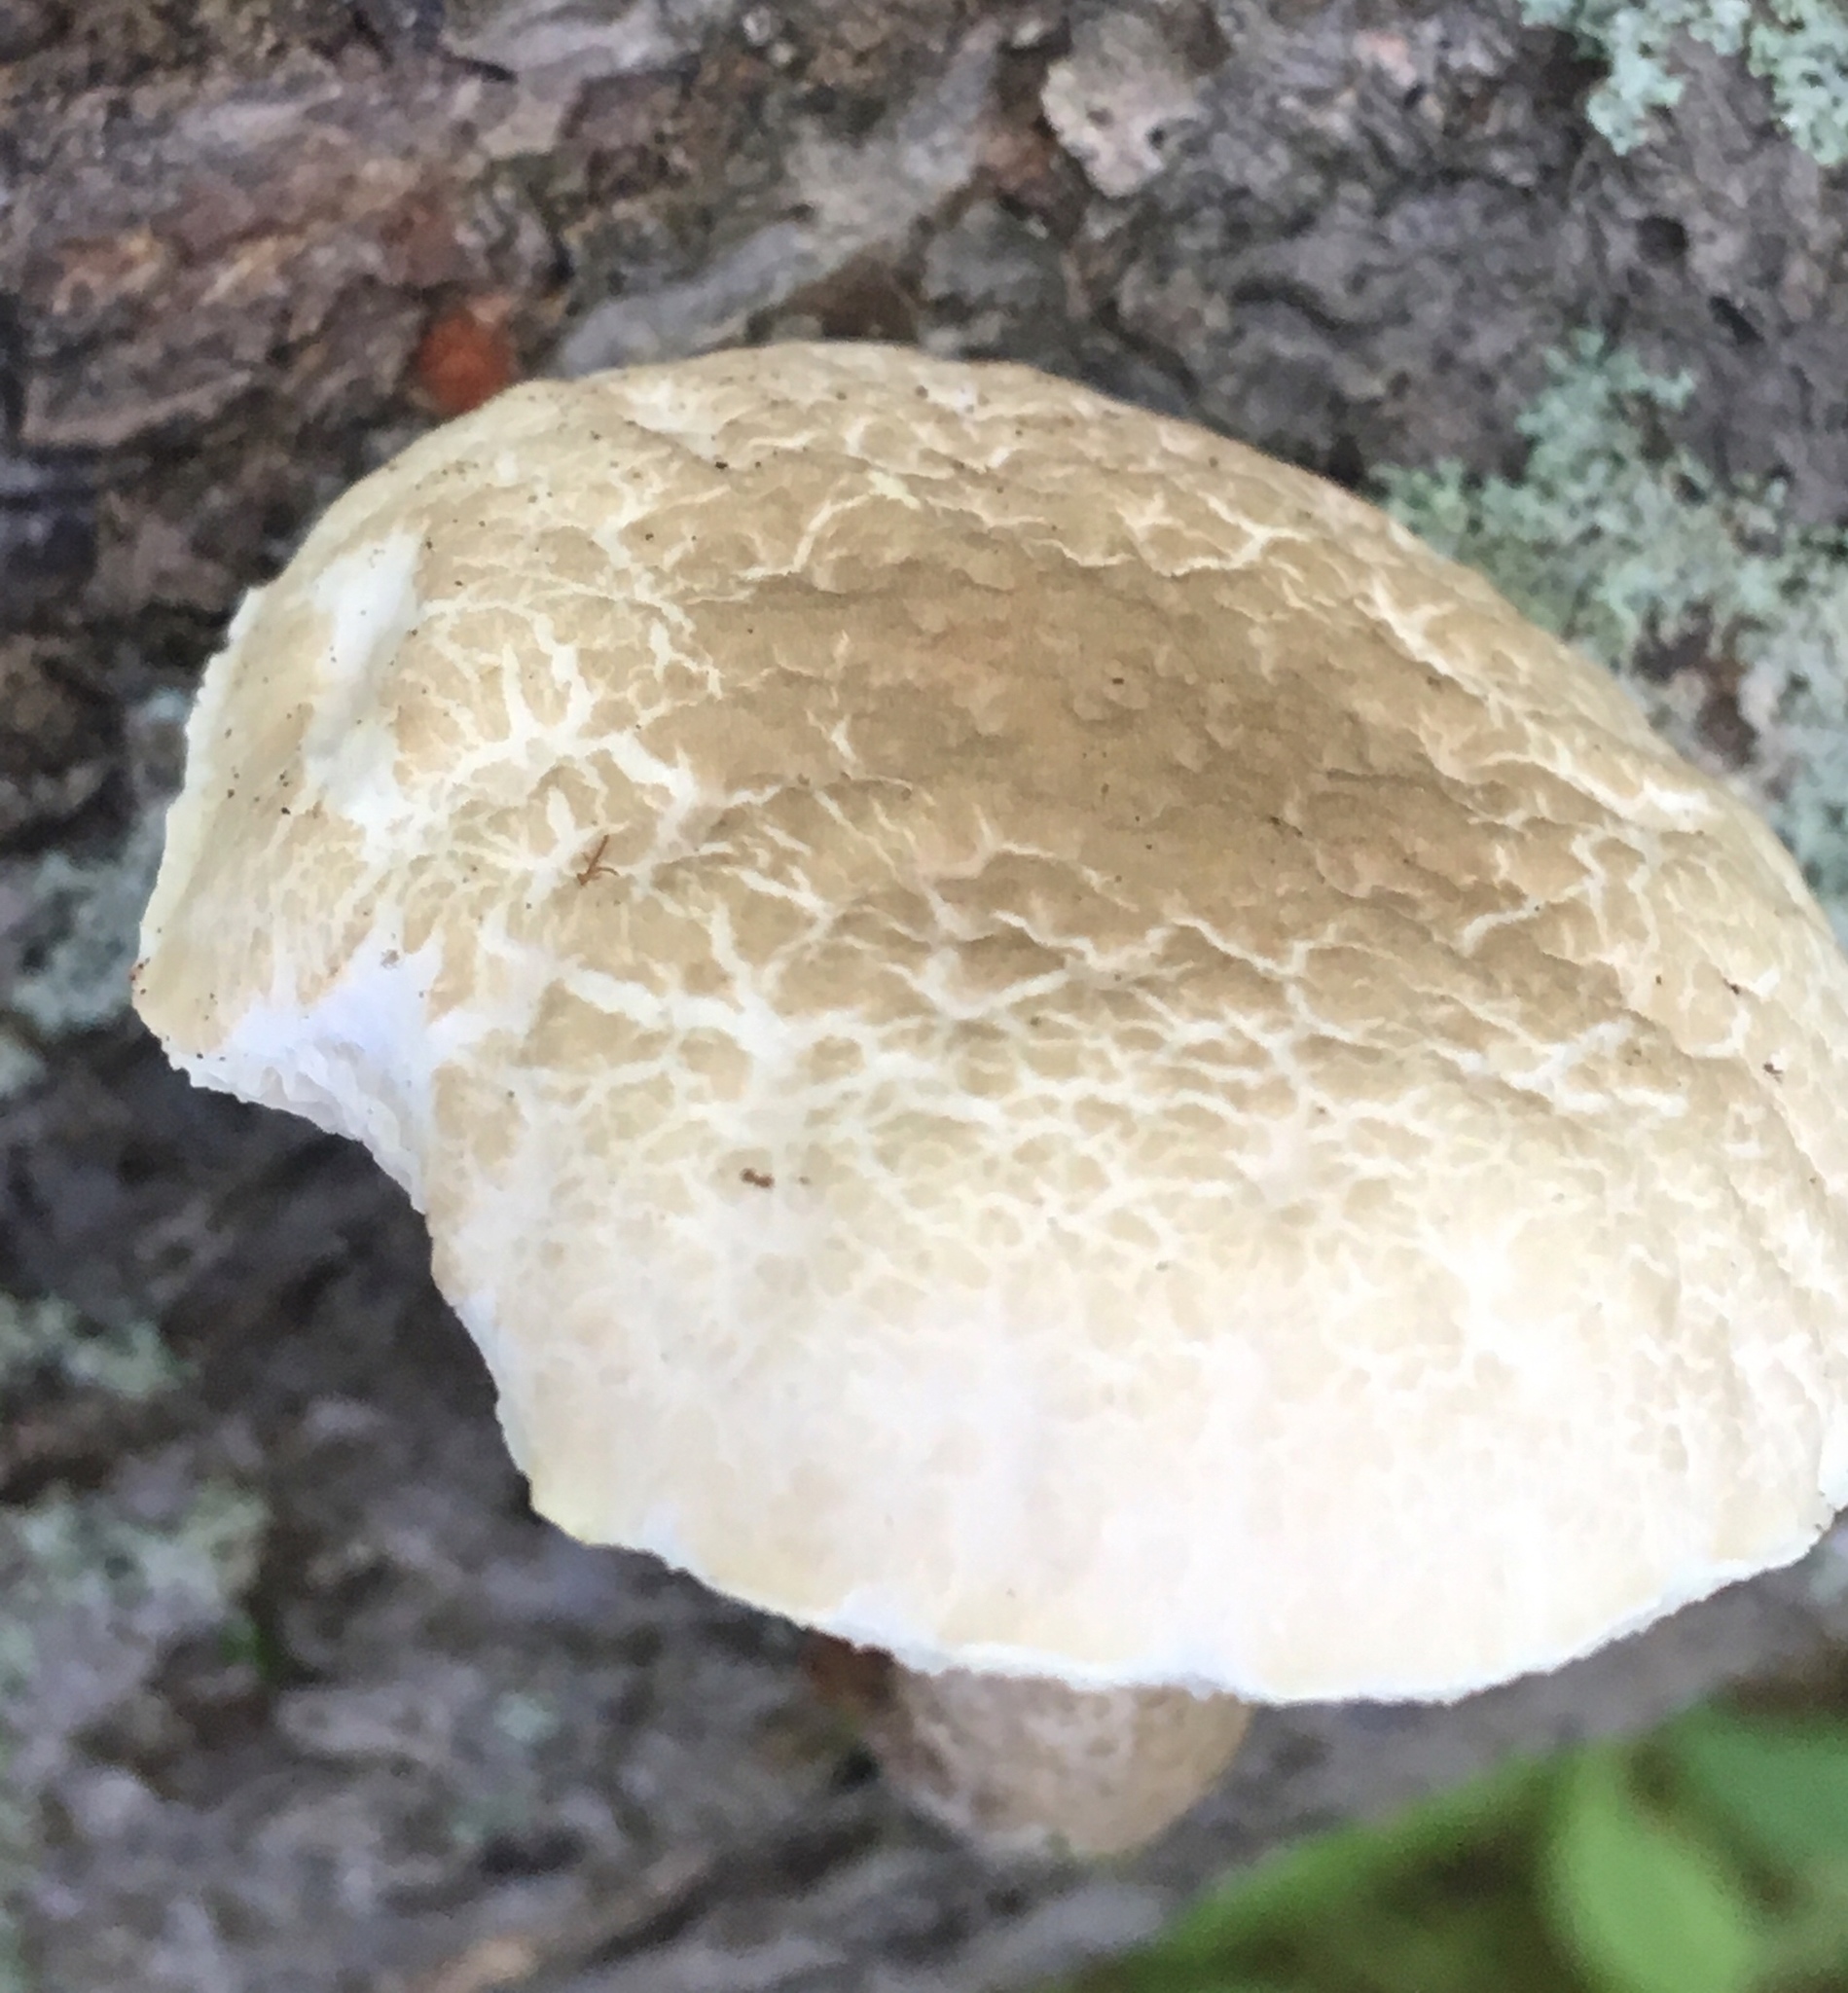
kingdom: Fungi
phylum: Basidiomycota
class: Agaricomycetes
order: Boletales
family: Boletaceae
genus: Leccinellum
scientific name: Leccinellum albellum
